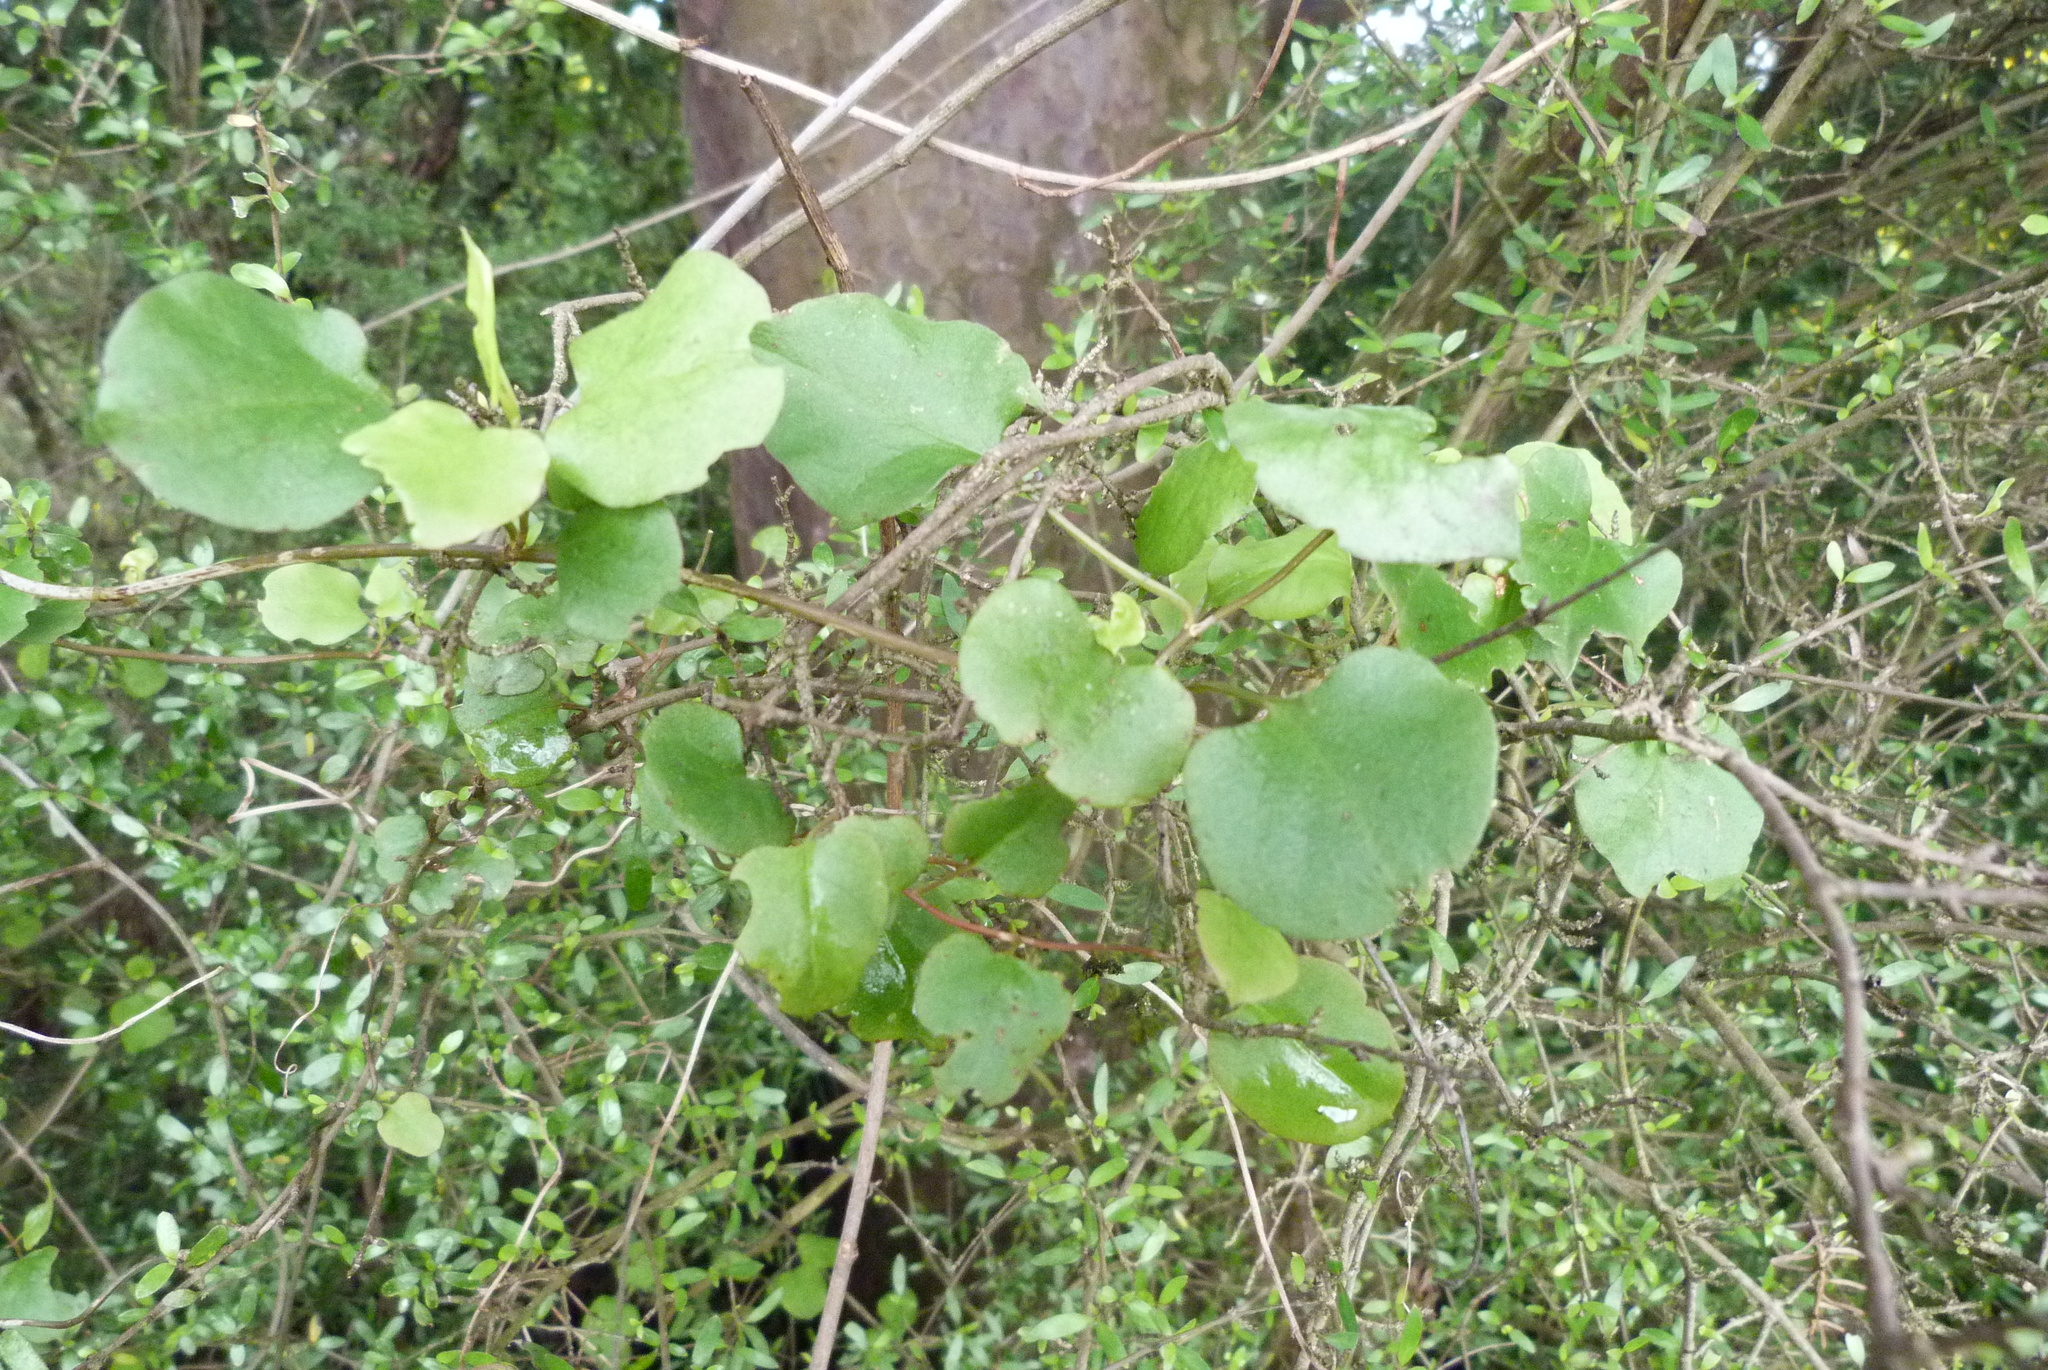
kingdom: Plantae
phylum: Tracheophyta
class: Magnoliopsida
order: Caryophyllales
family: Polygonaceae
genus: Muehlenbeckia
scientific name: Muehlenbeckia australis
